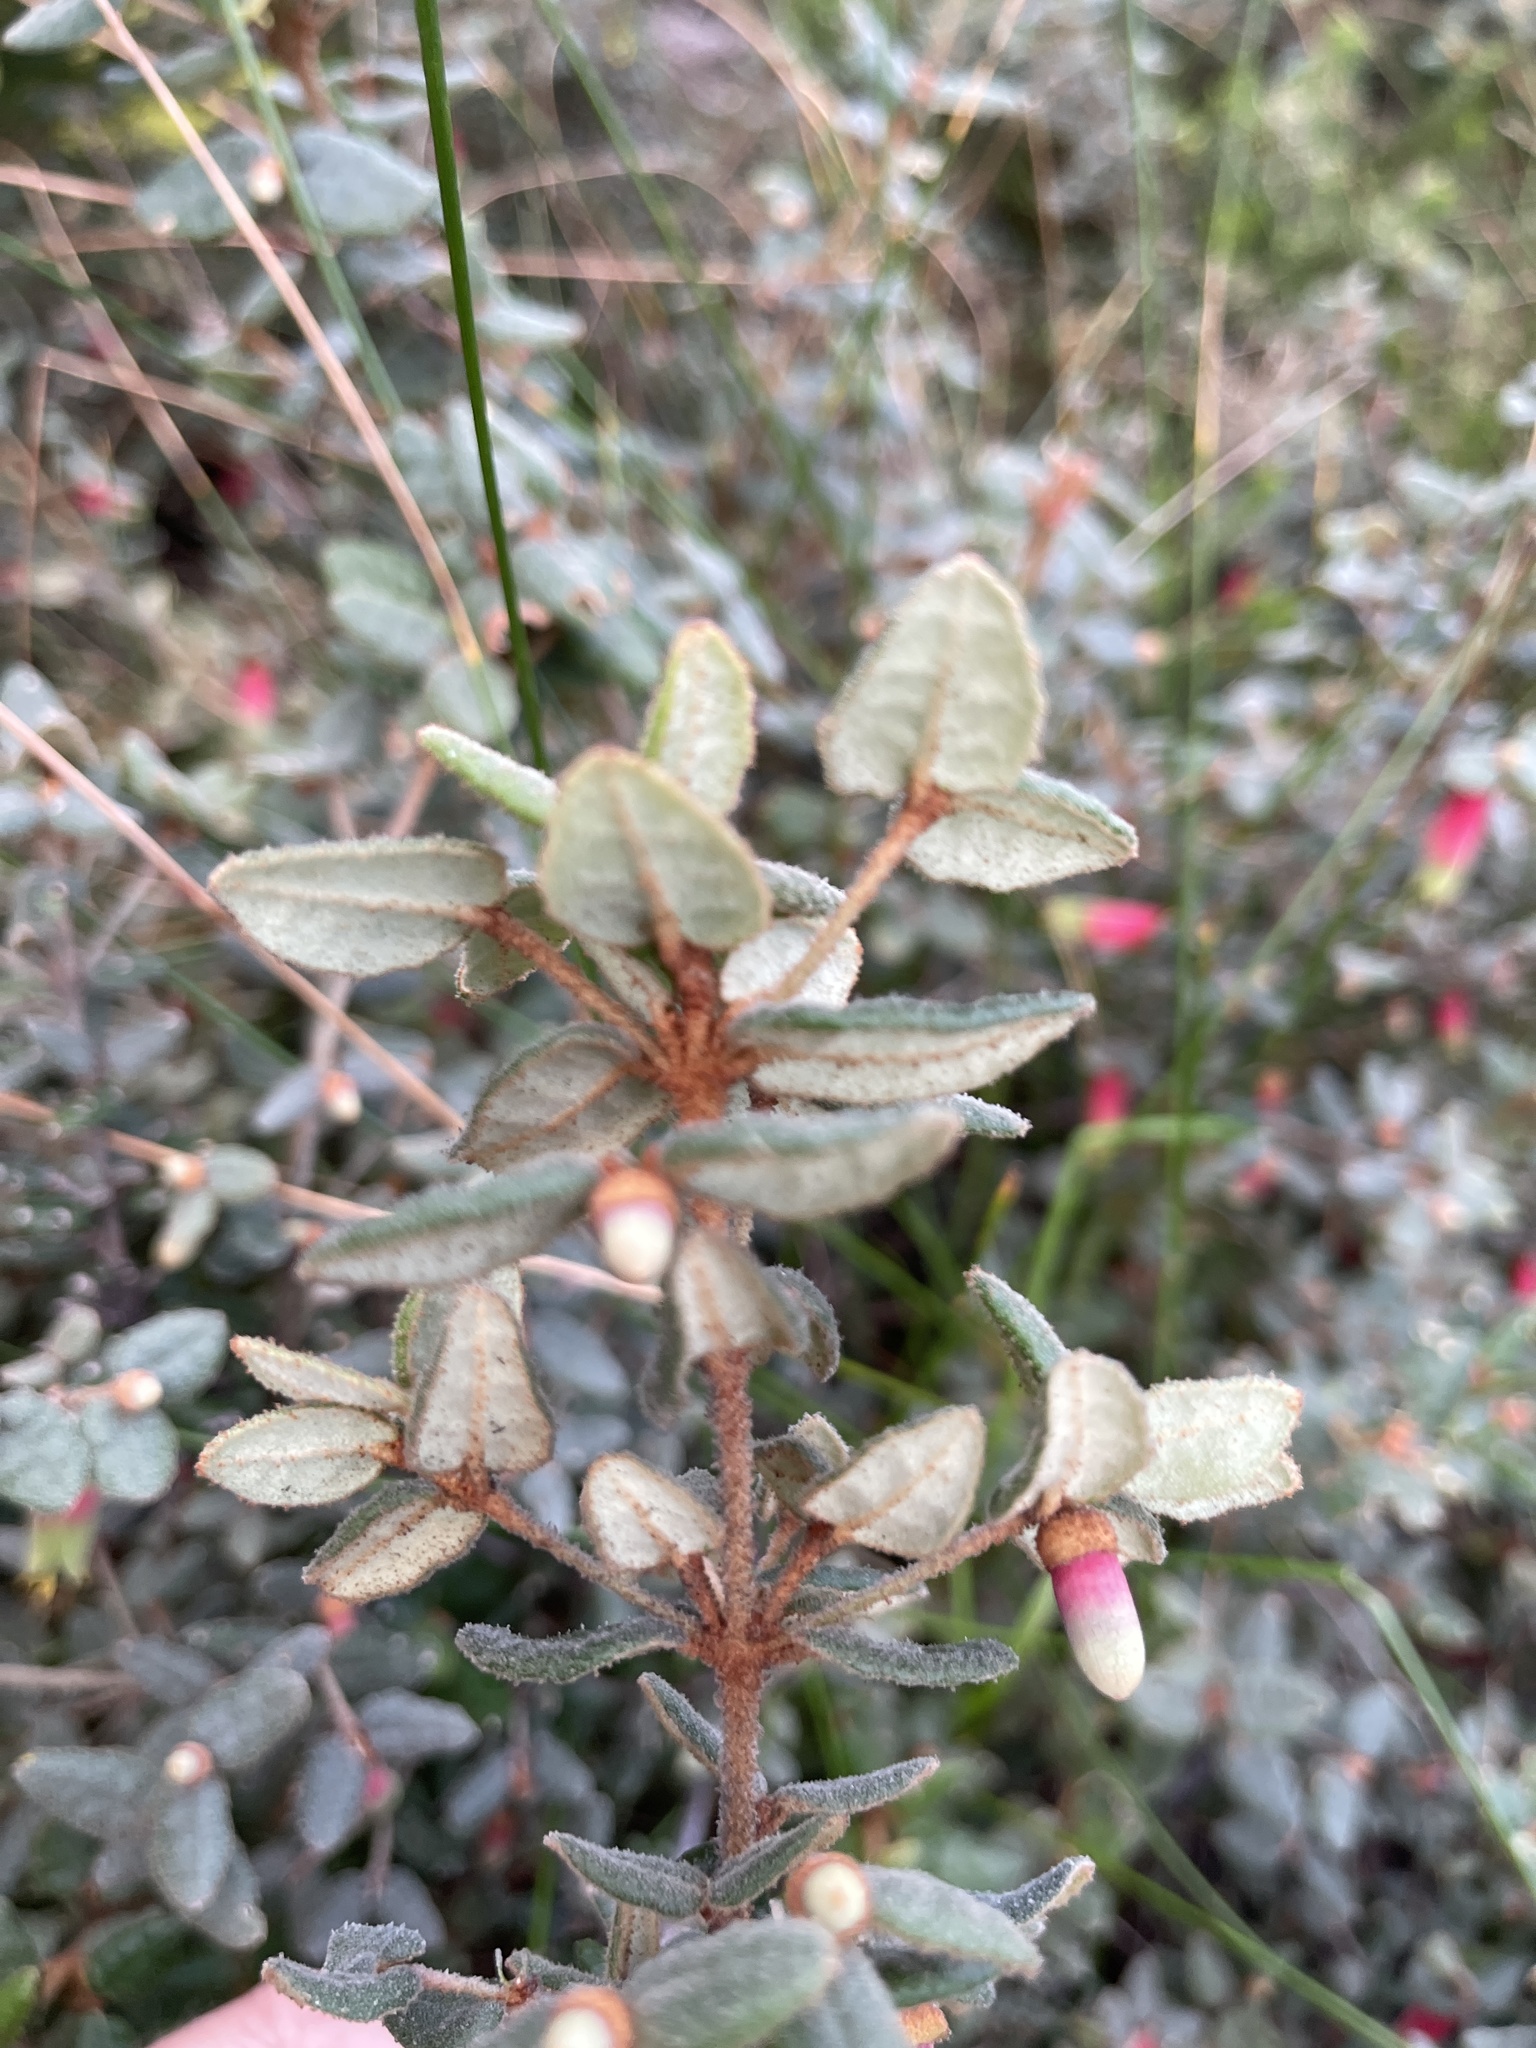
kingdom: Plantae
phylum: Tracheophyta
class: Magnoliopsida
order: Sapindales
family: Rutaceae
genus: Correa
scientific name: Correa reflexa
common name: Common correa
